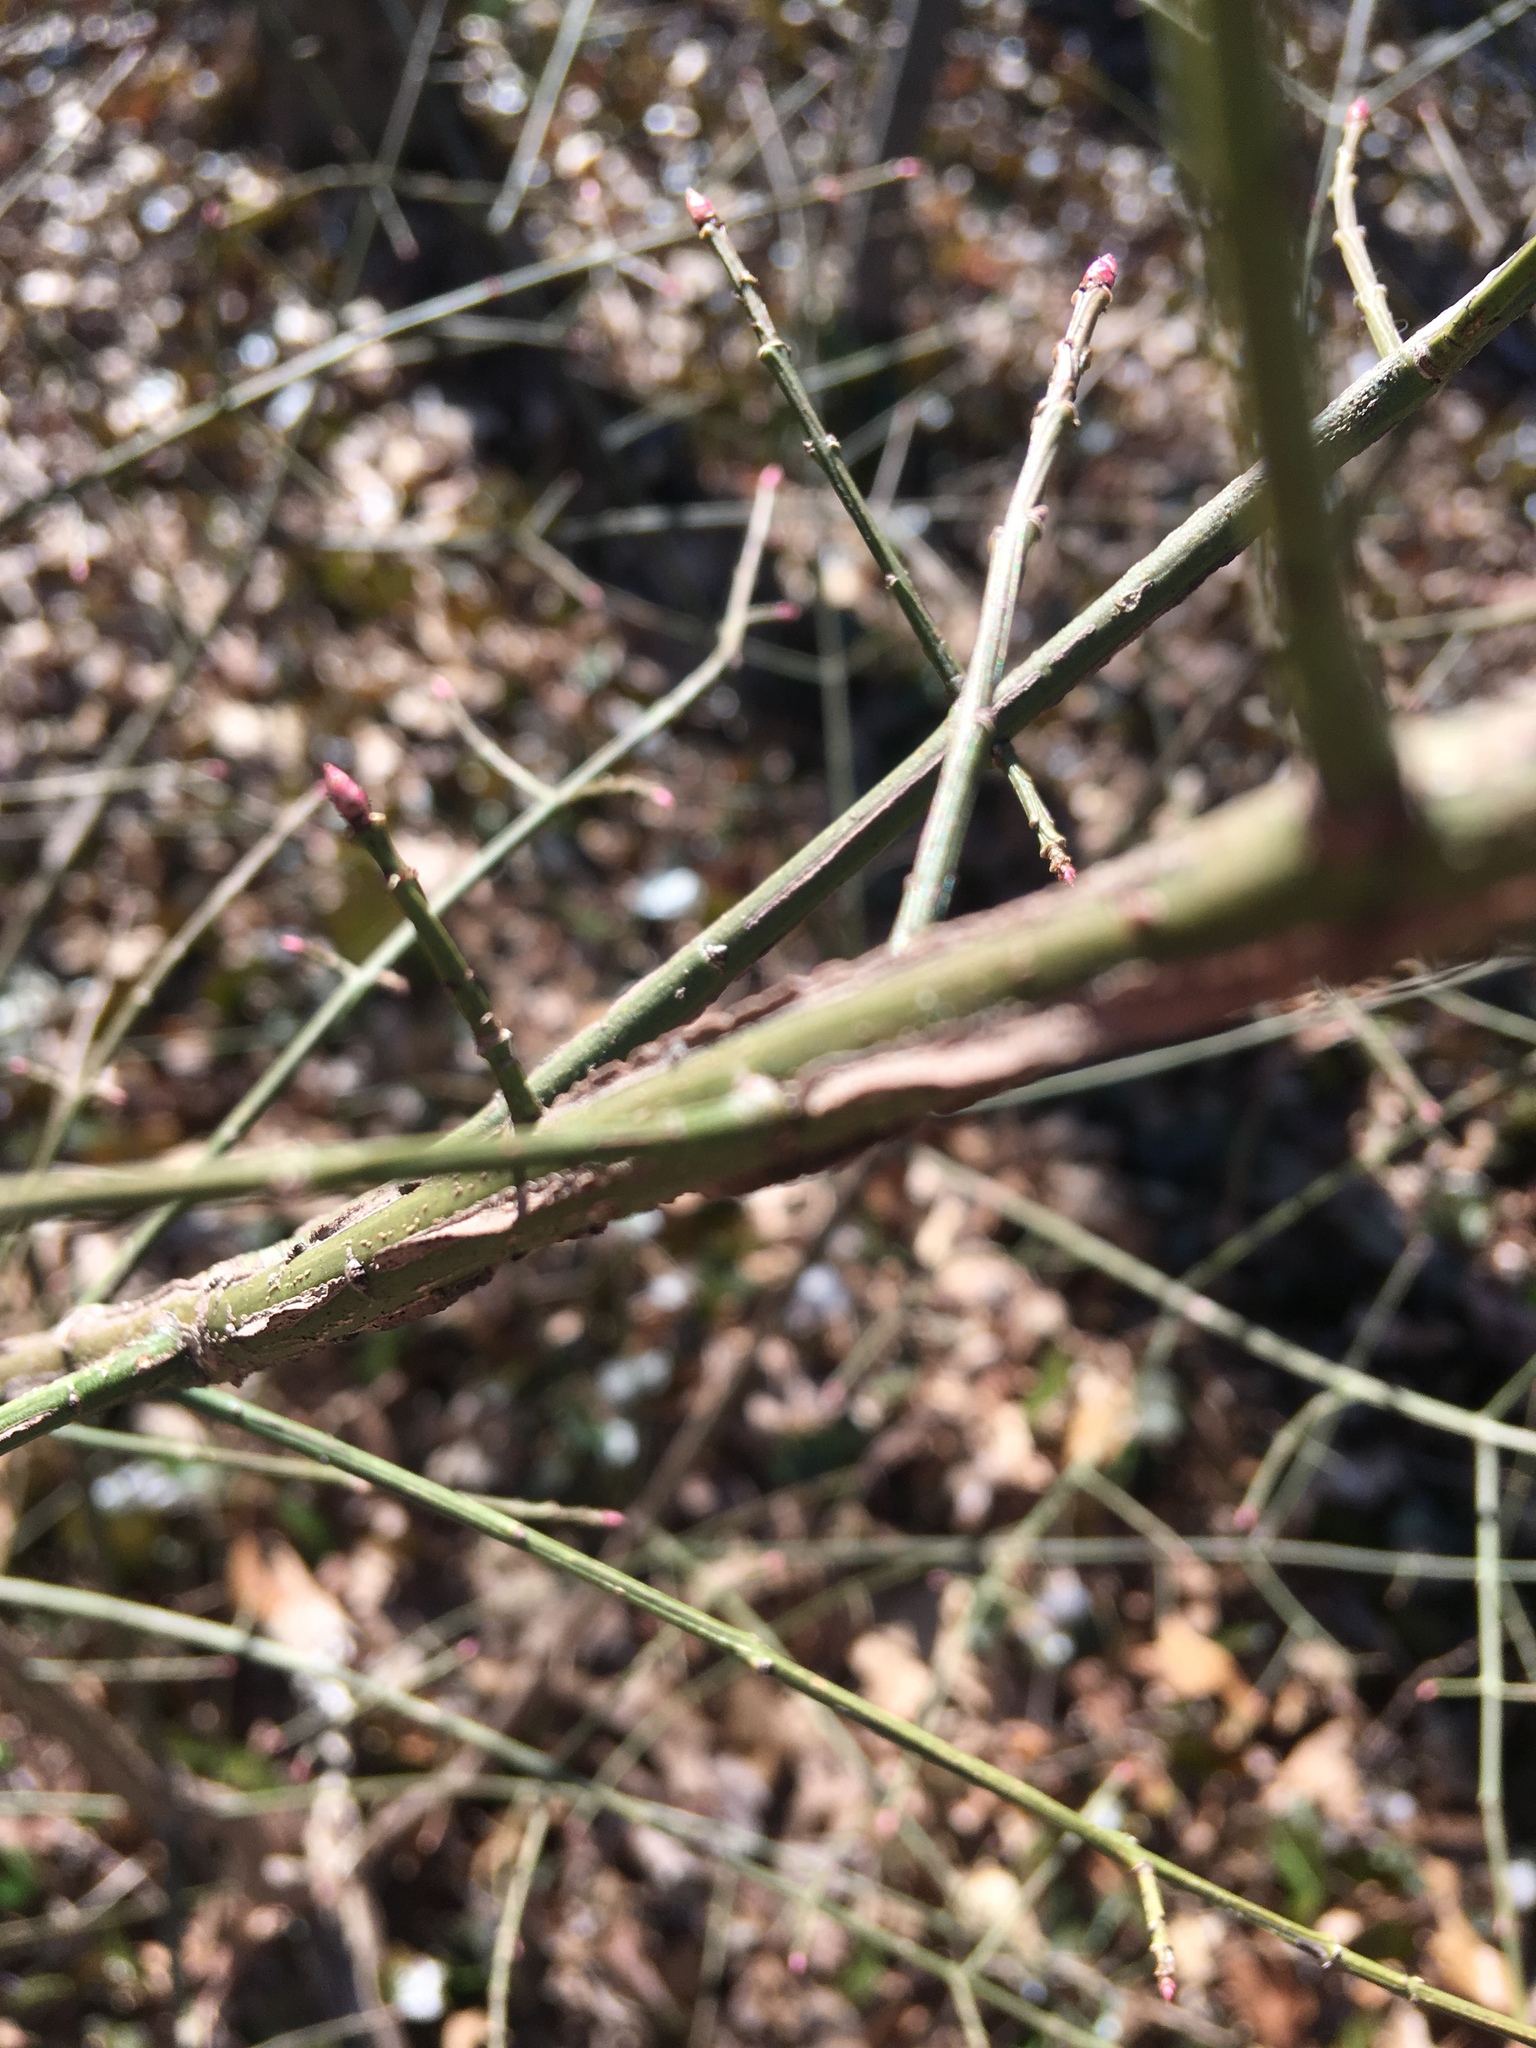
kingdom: Plantae
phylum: Tracheophyta
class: Magnoliopsida
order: Celastrales
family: Celastraceae
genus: Euonymus
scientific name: Euonymus alatus
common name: Winged euonymus
